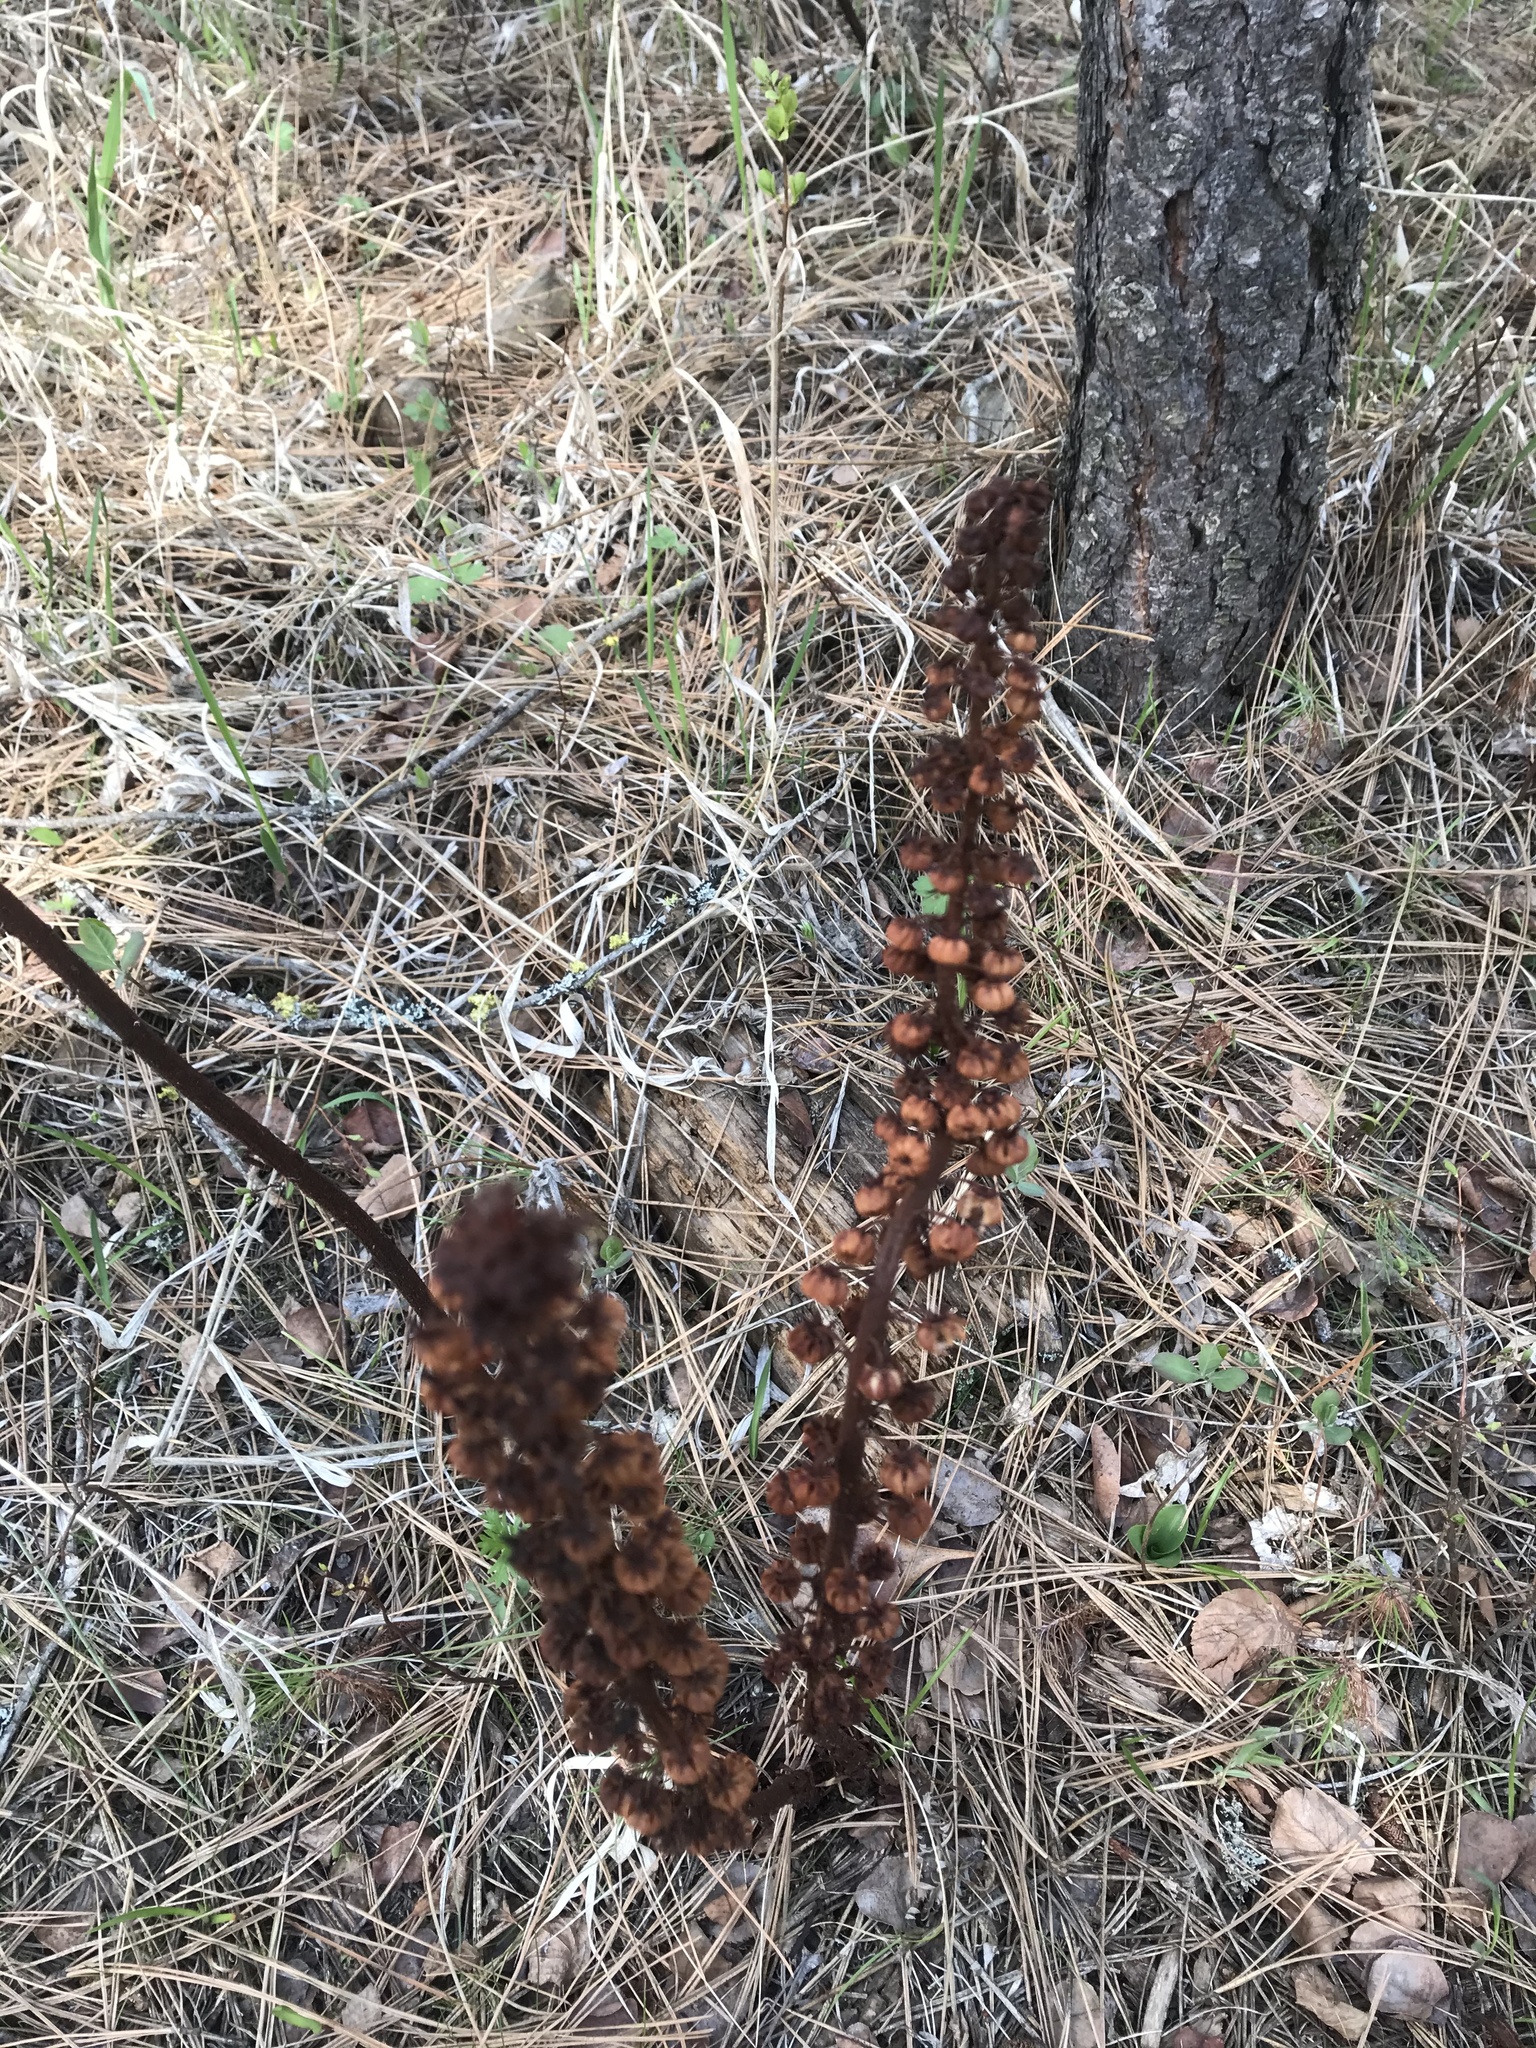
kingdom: Plantae
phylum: Tracheophyta
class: Magnoliopsida
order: Ericales
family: Ericaceae
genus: Pterospora
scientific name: Pterospora andromedea
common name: Giant bird's-nest
